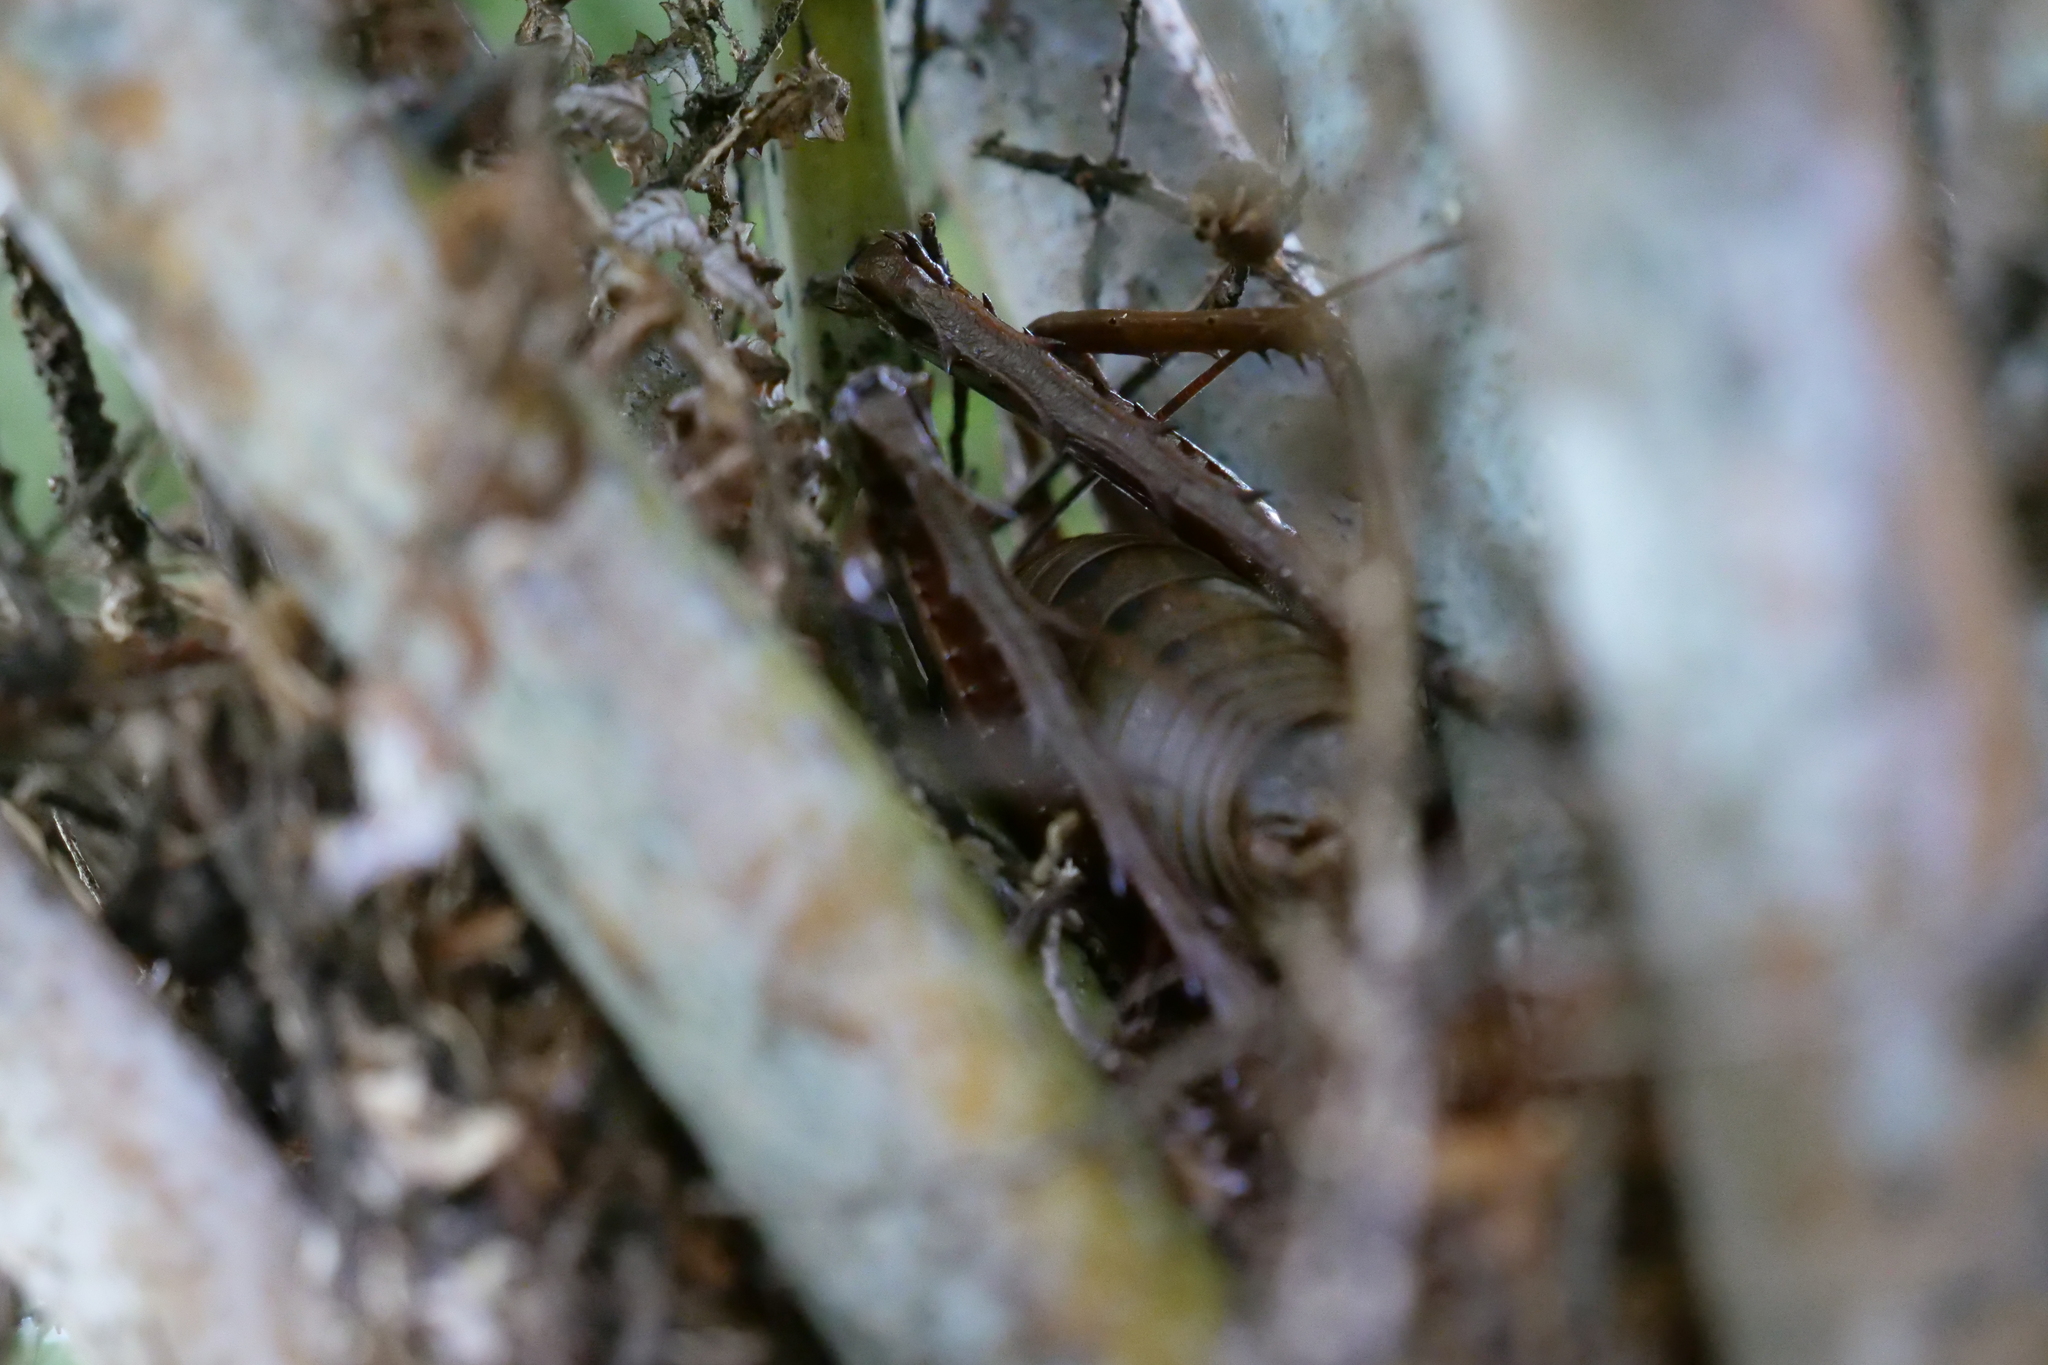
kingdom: Animalia
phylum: Arthropoda
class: Insecta
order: Orthoptera
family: Anostostomatidae
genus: Deinacrida
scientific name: Deinacrida heteracantha
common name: Wetapunga
